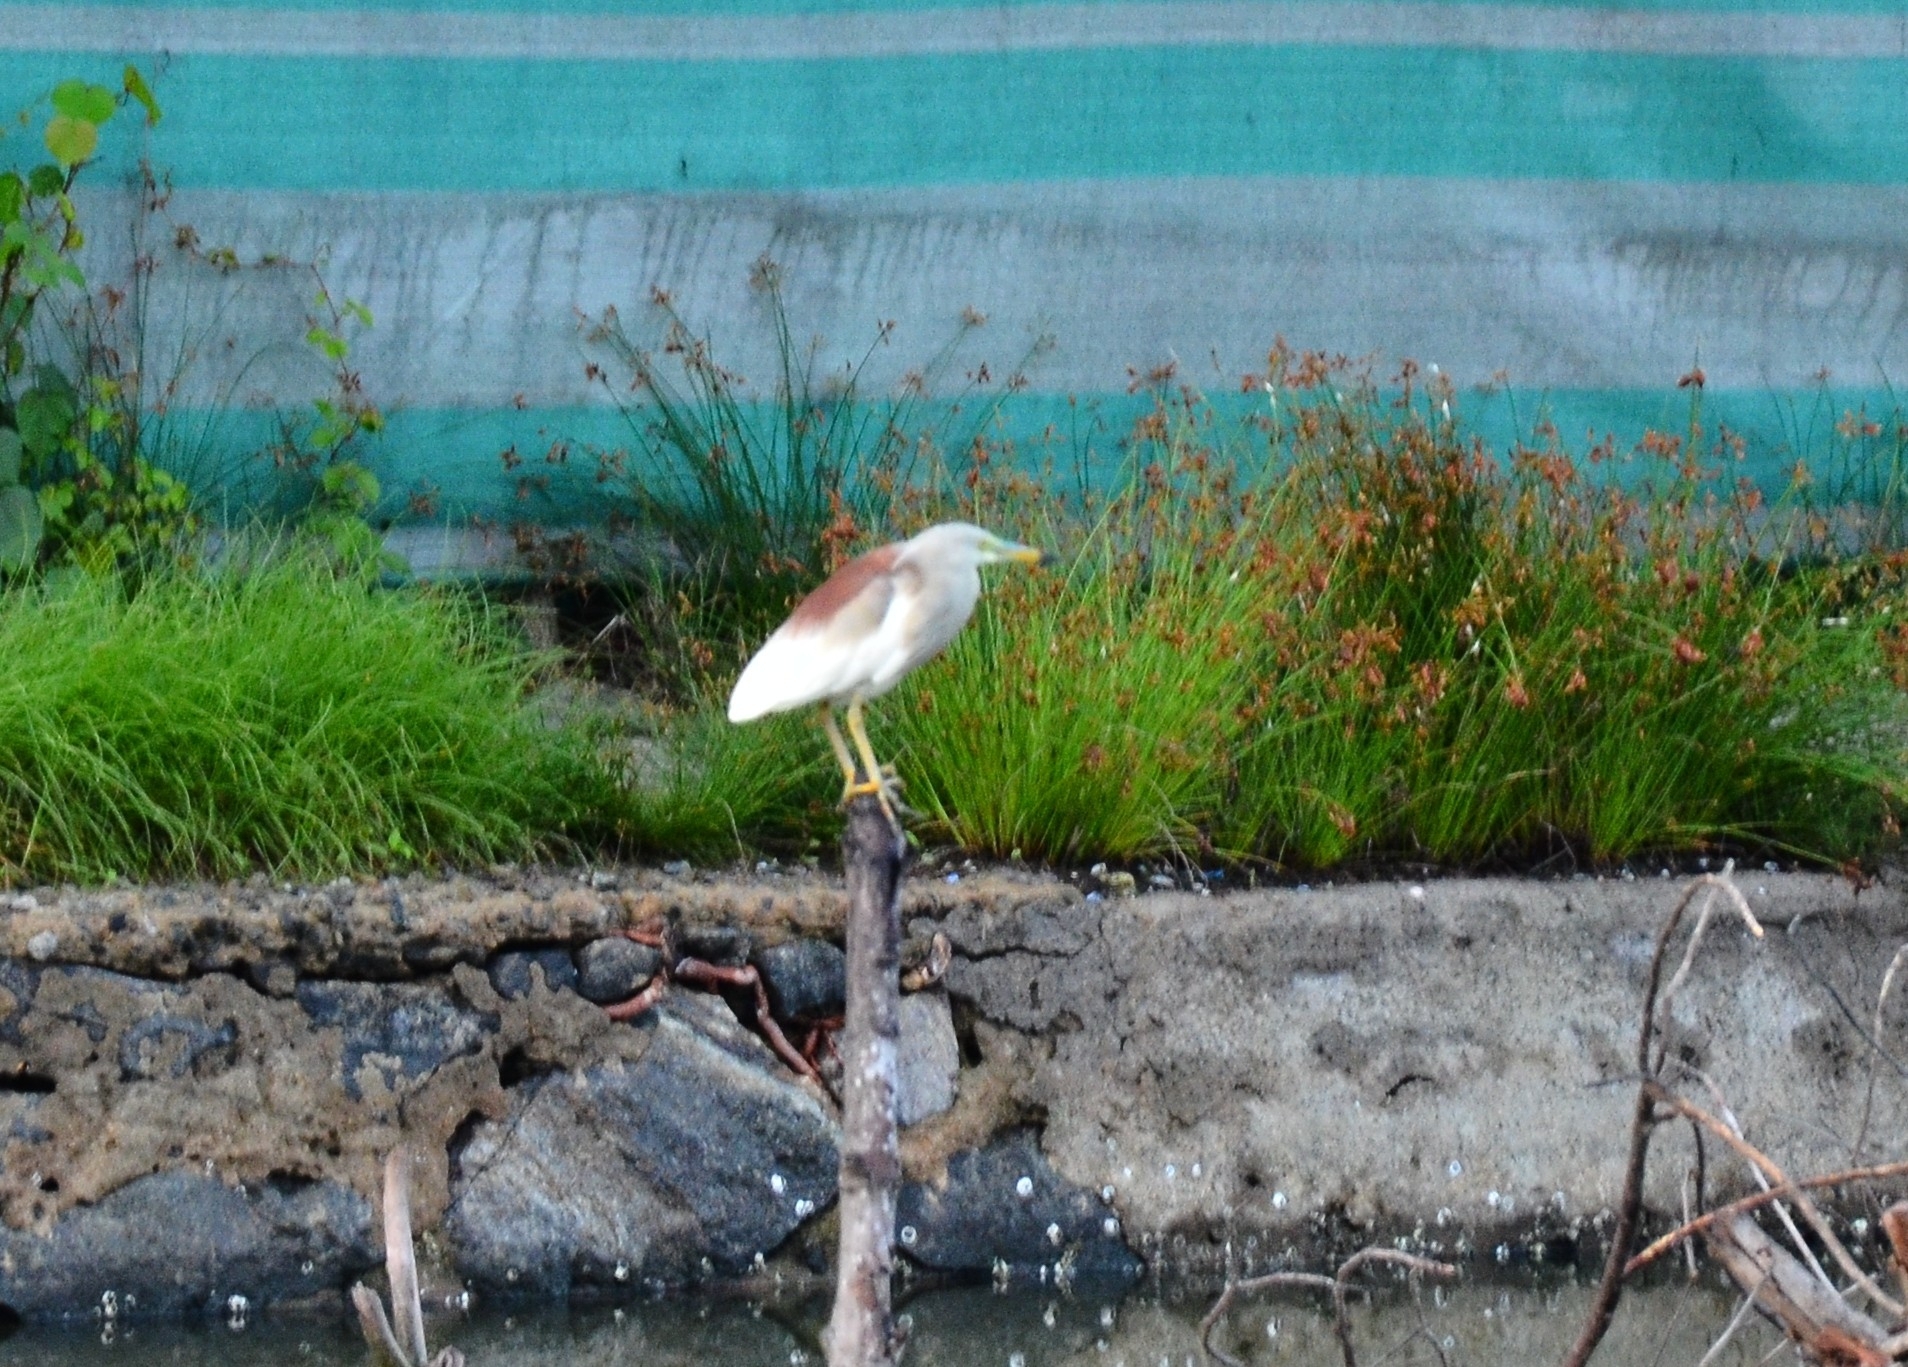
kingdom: Animalia
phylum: Chordata
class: Aves
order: Pelecaniformes
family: Ardeidae
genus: Ardeola
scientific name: Ardeola grayii
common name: Indian pond heron
